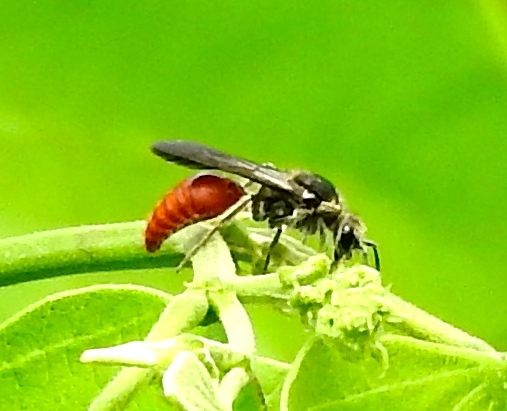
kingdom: Animalia
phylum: Arthropoda
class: Insecta
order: Hymenoptera
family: Mutillidae
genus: Timulla
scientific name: Timulla
